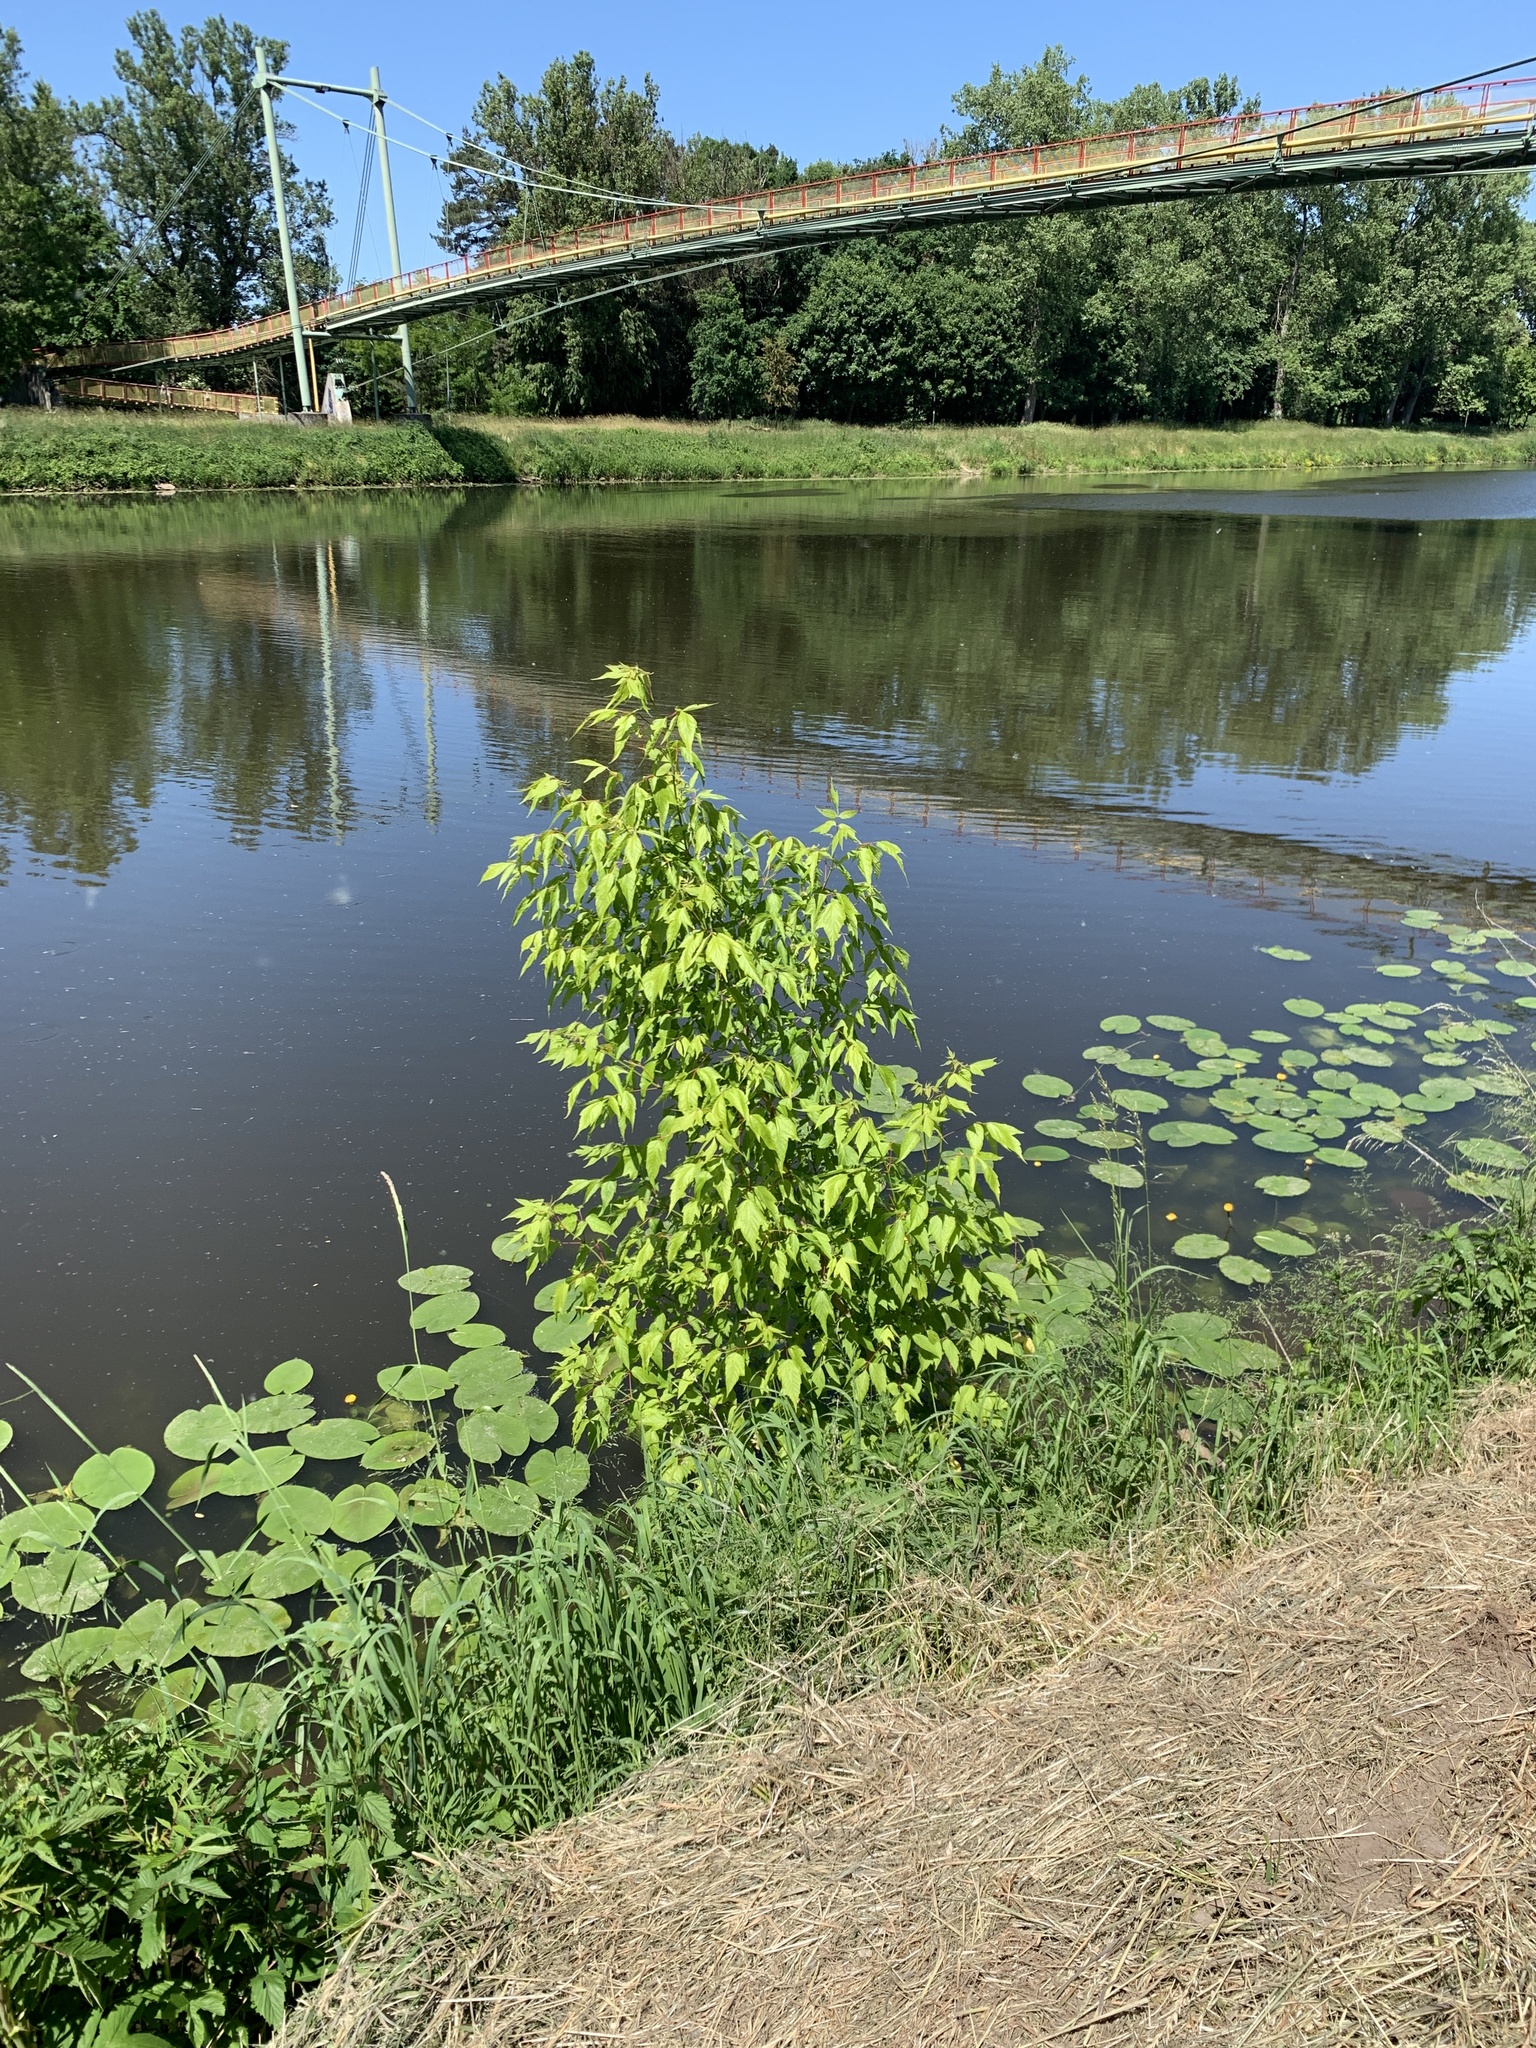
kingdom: Plantae
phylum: Tracheophyta
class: Magnoliopsida
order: Sapindales
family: Sapindaceae
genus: Acer
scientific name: Acer negundo
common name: Ashleaf maple
